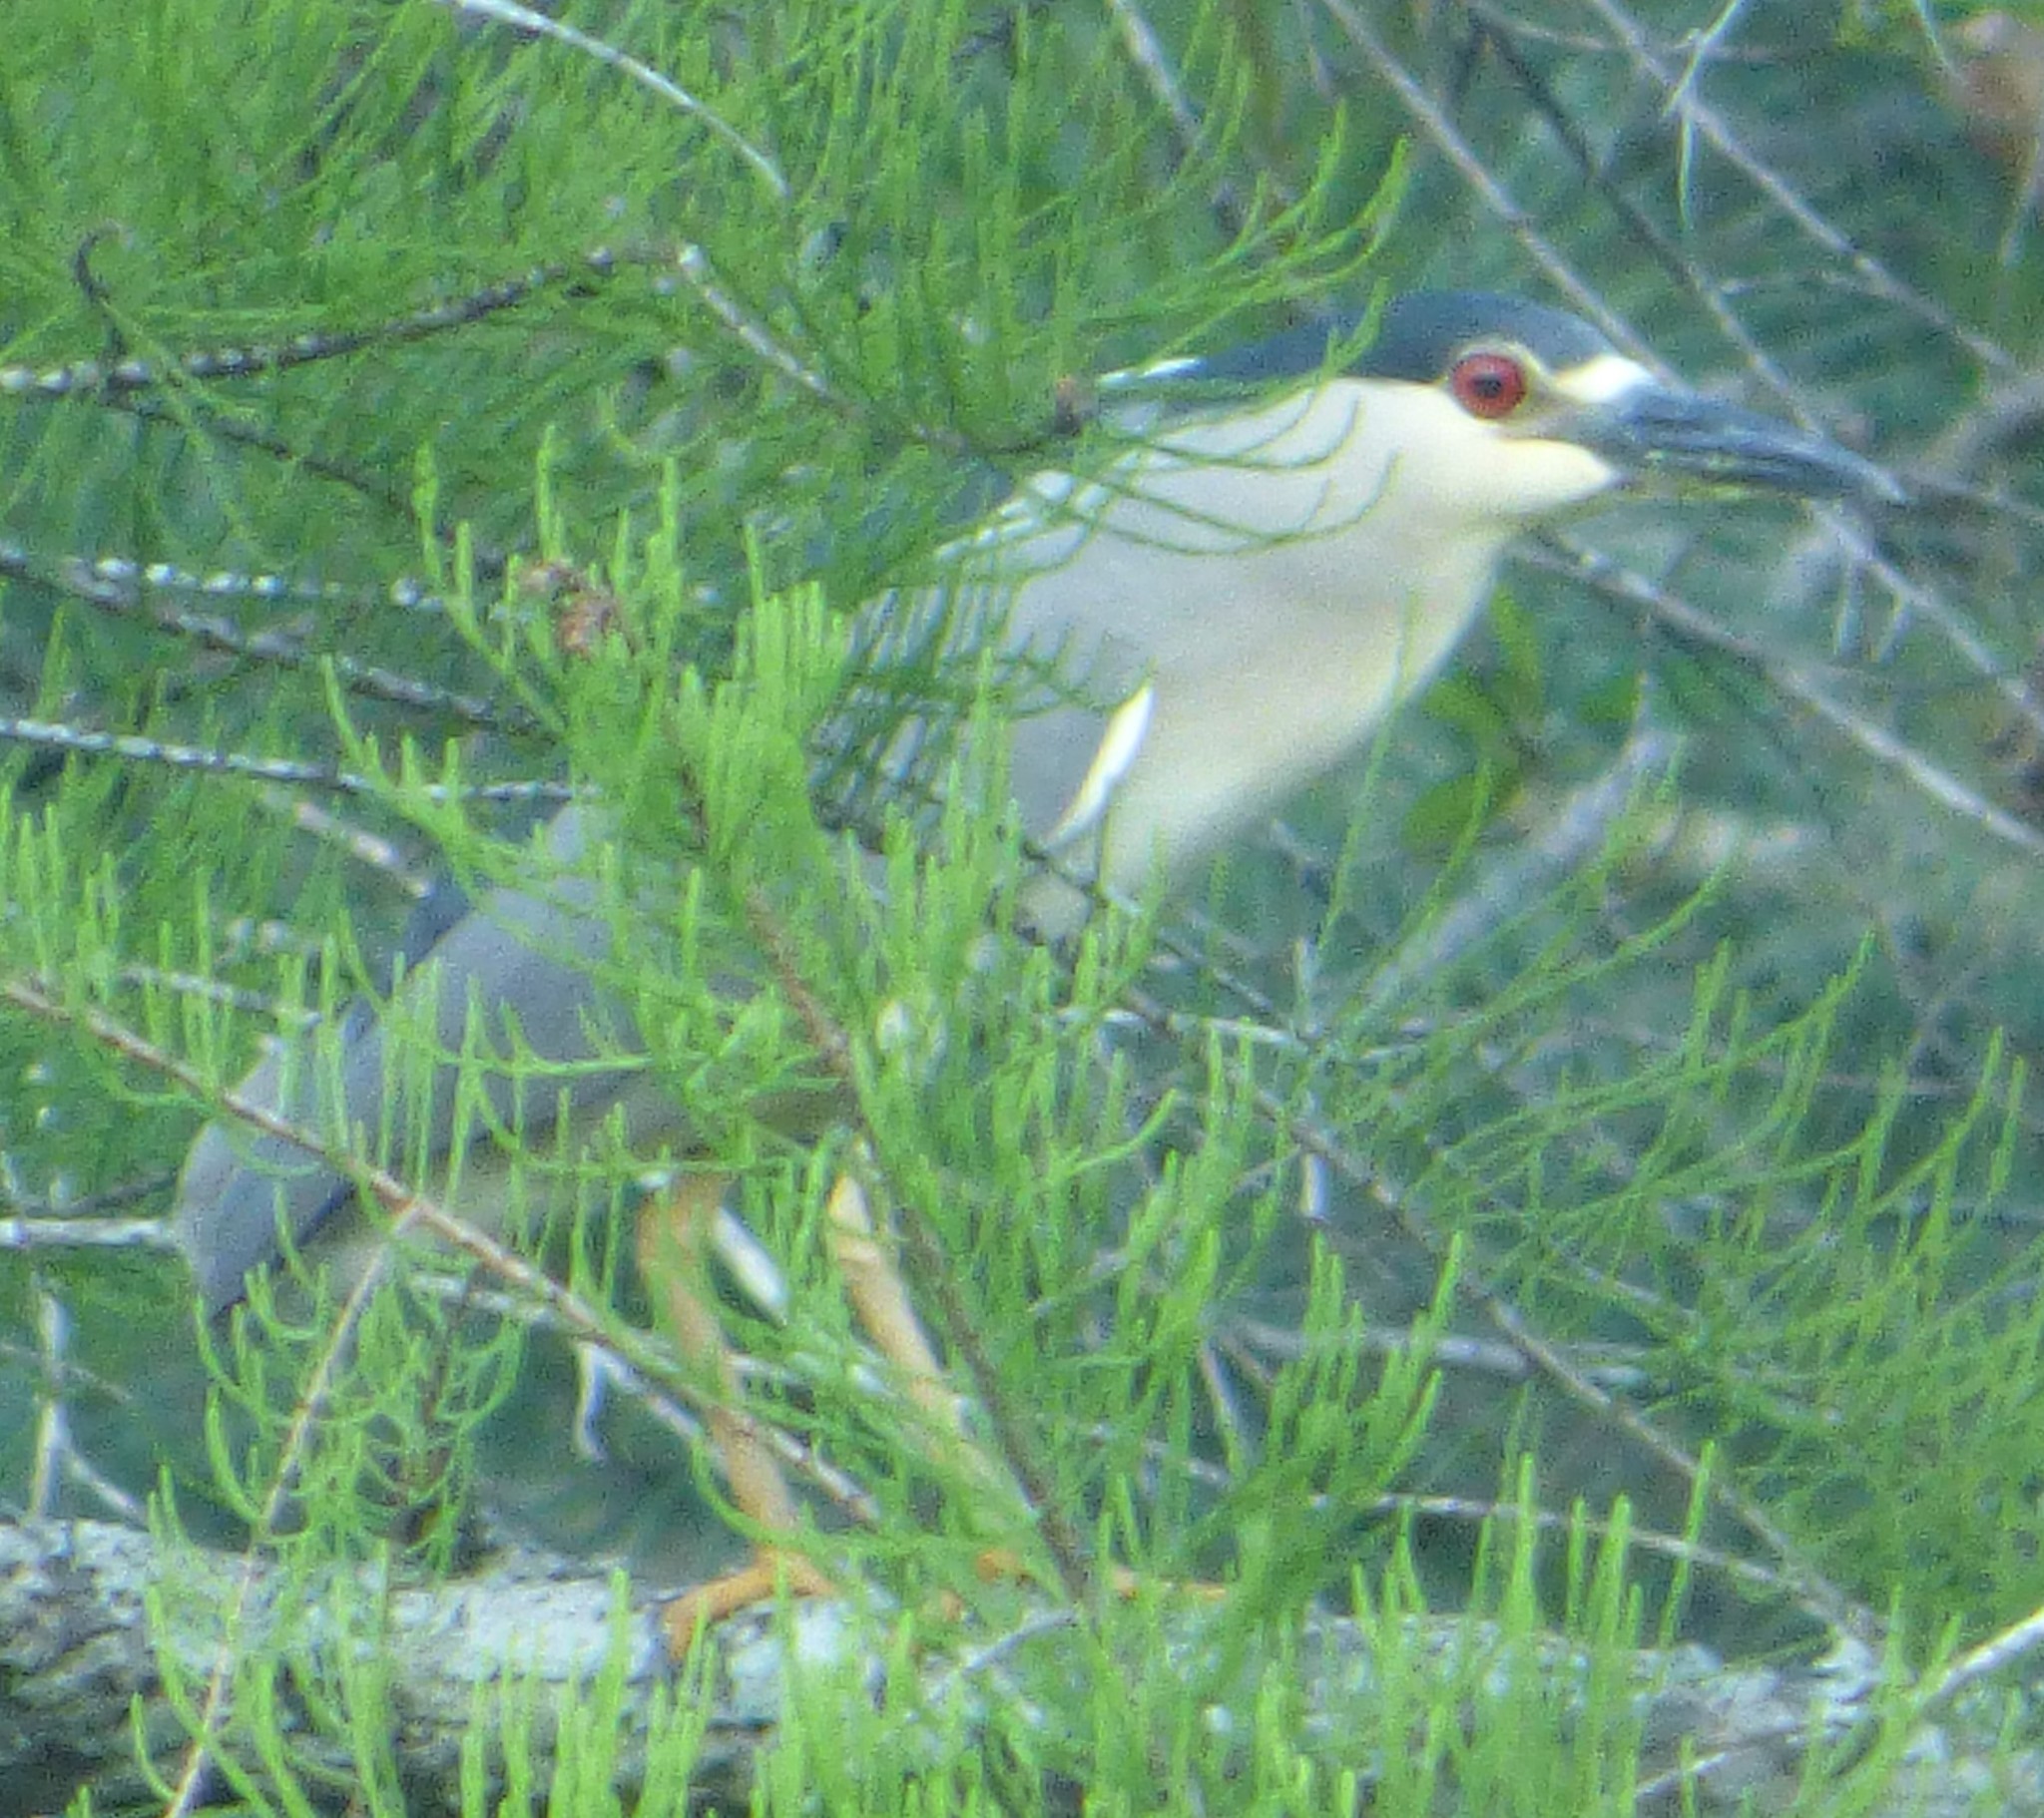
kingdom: Animalia
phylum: Chordata
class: Aves
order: Pelecaniformes
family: Ardeidae
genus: Nycticorax
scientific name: Nycticorax nycticorax
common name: Black-crowned night heron
